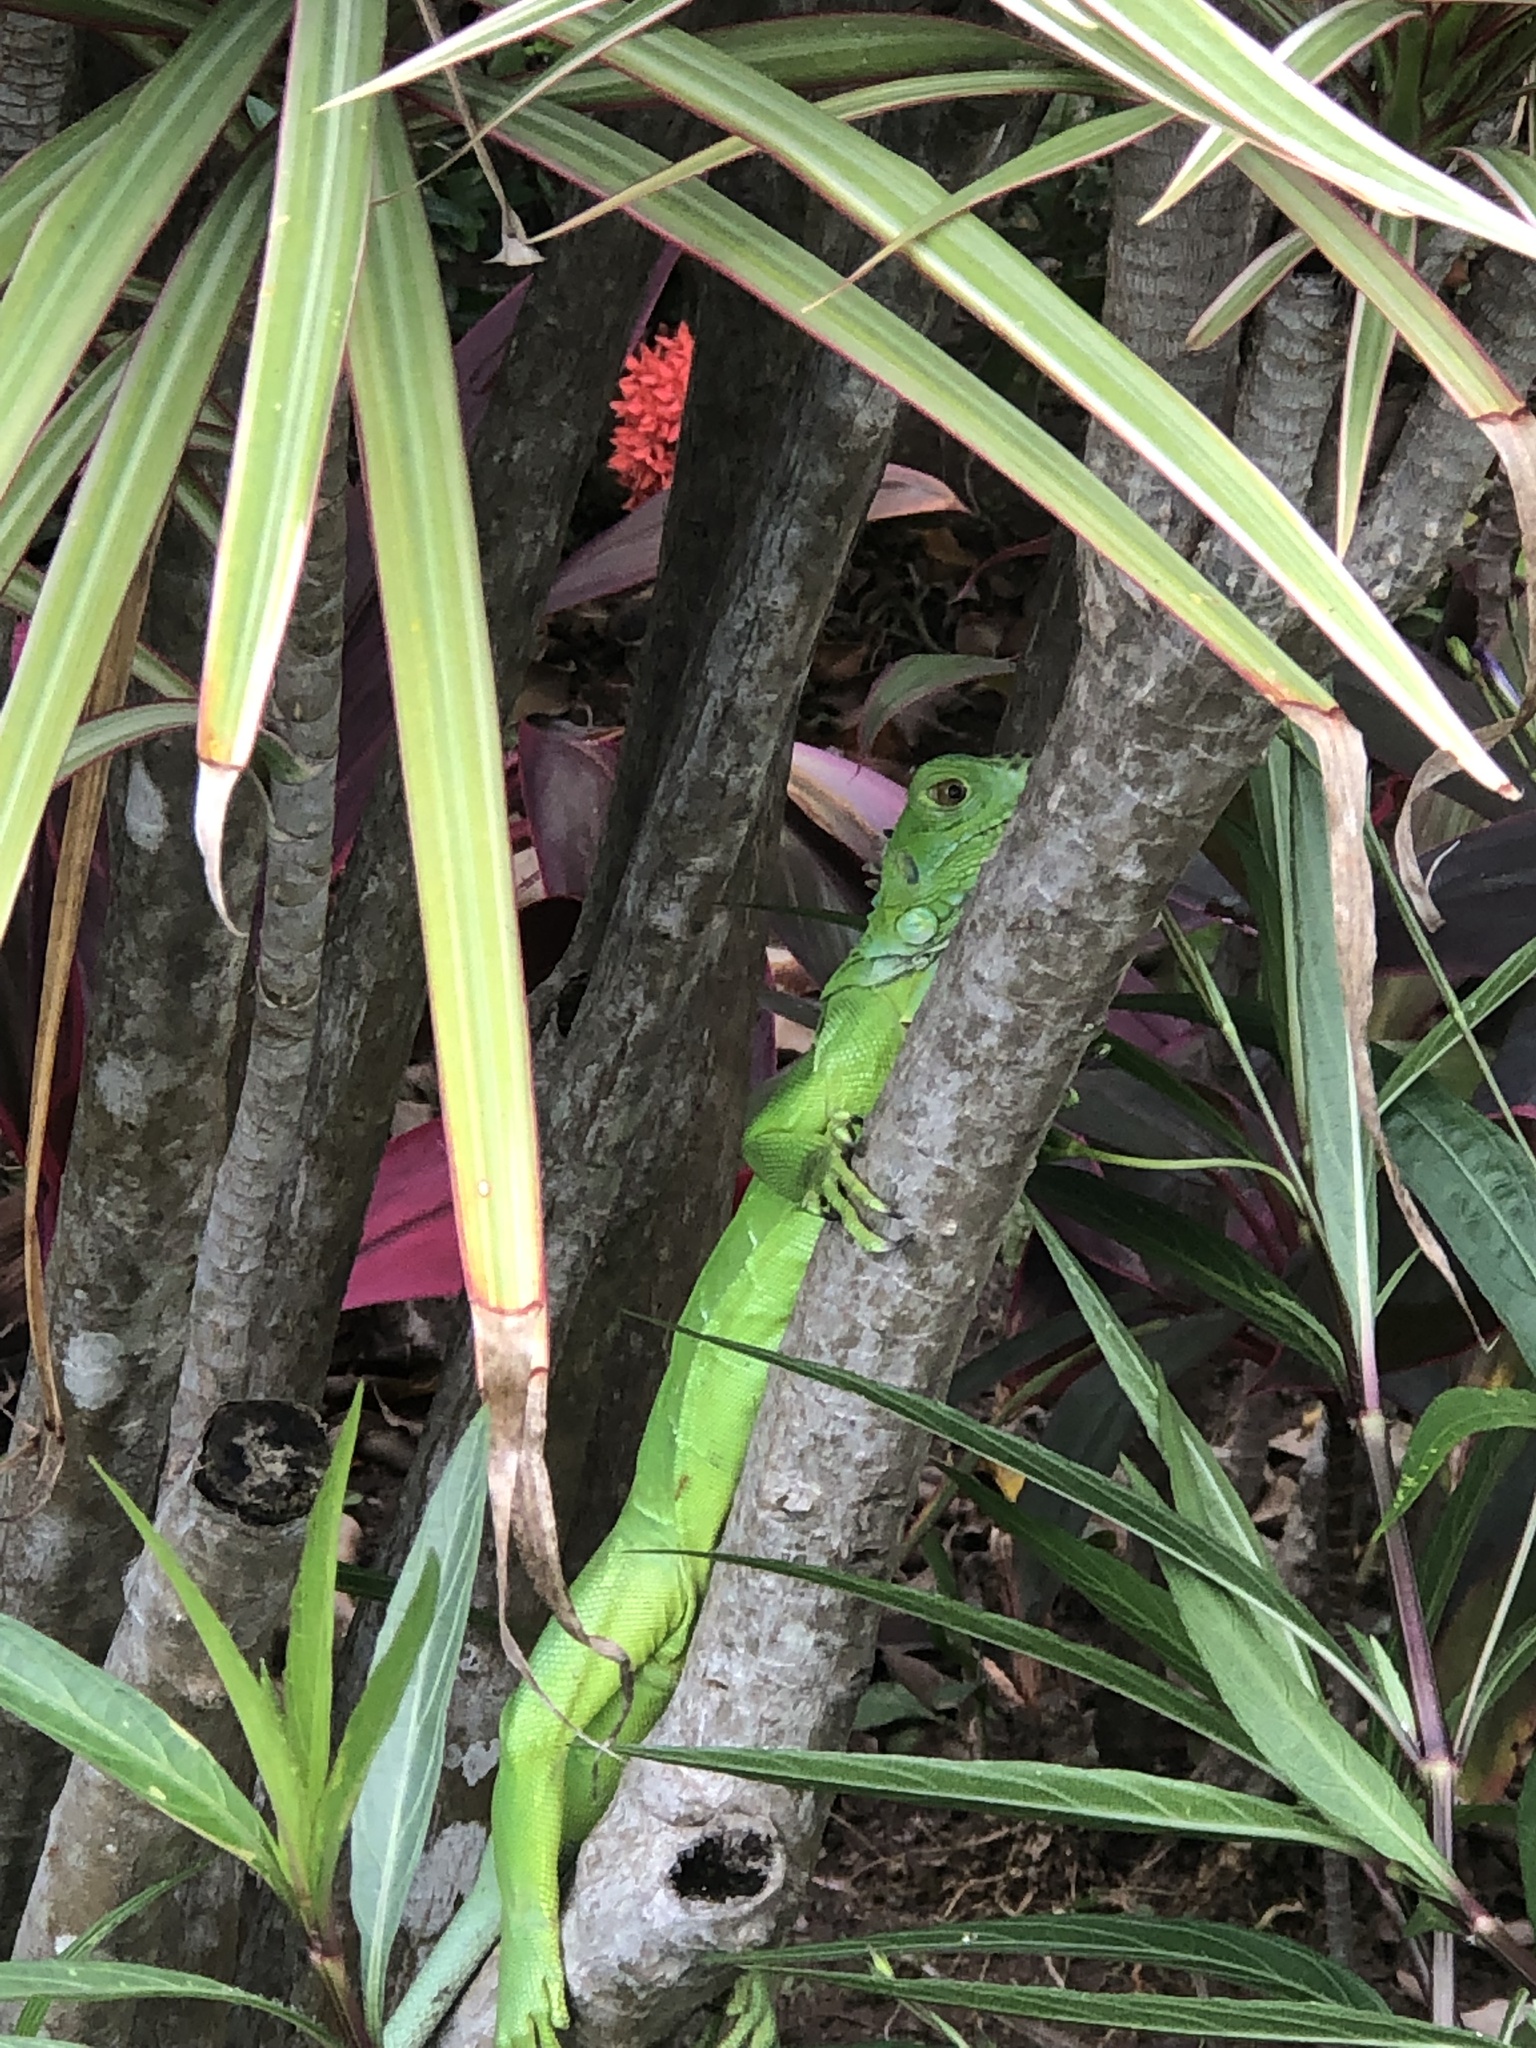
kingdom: Animalia
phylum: Chordata
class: Squamata
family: Iguanidae
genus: Iguana
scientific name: Iguana iguana
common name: Green iguana
